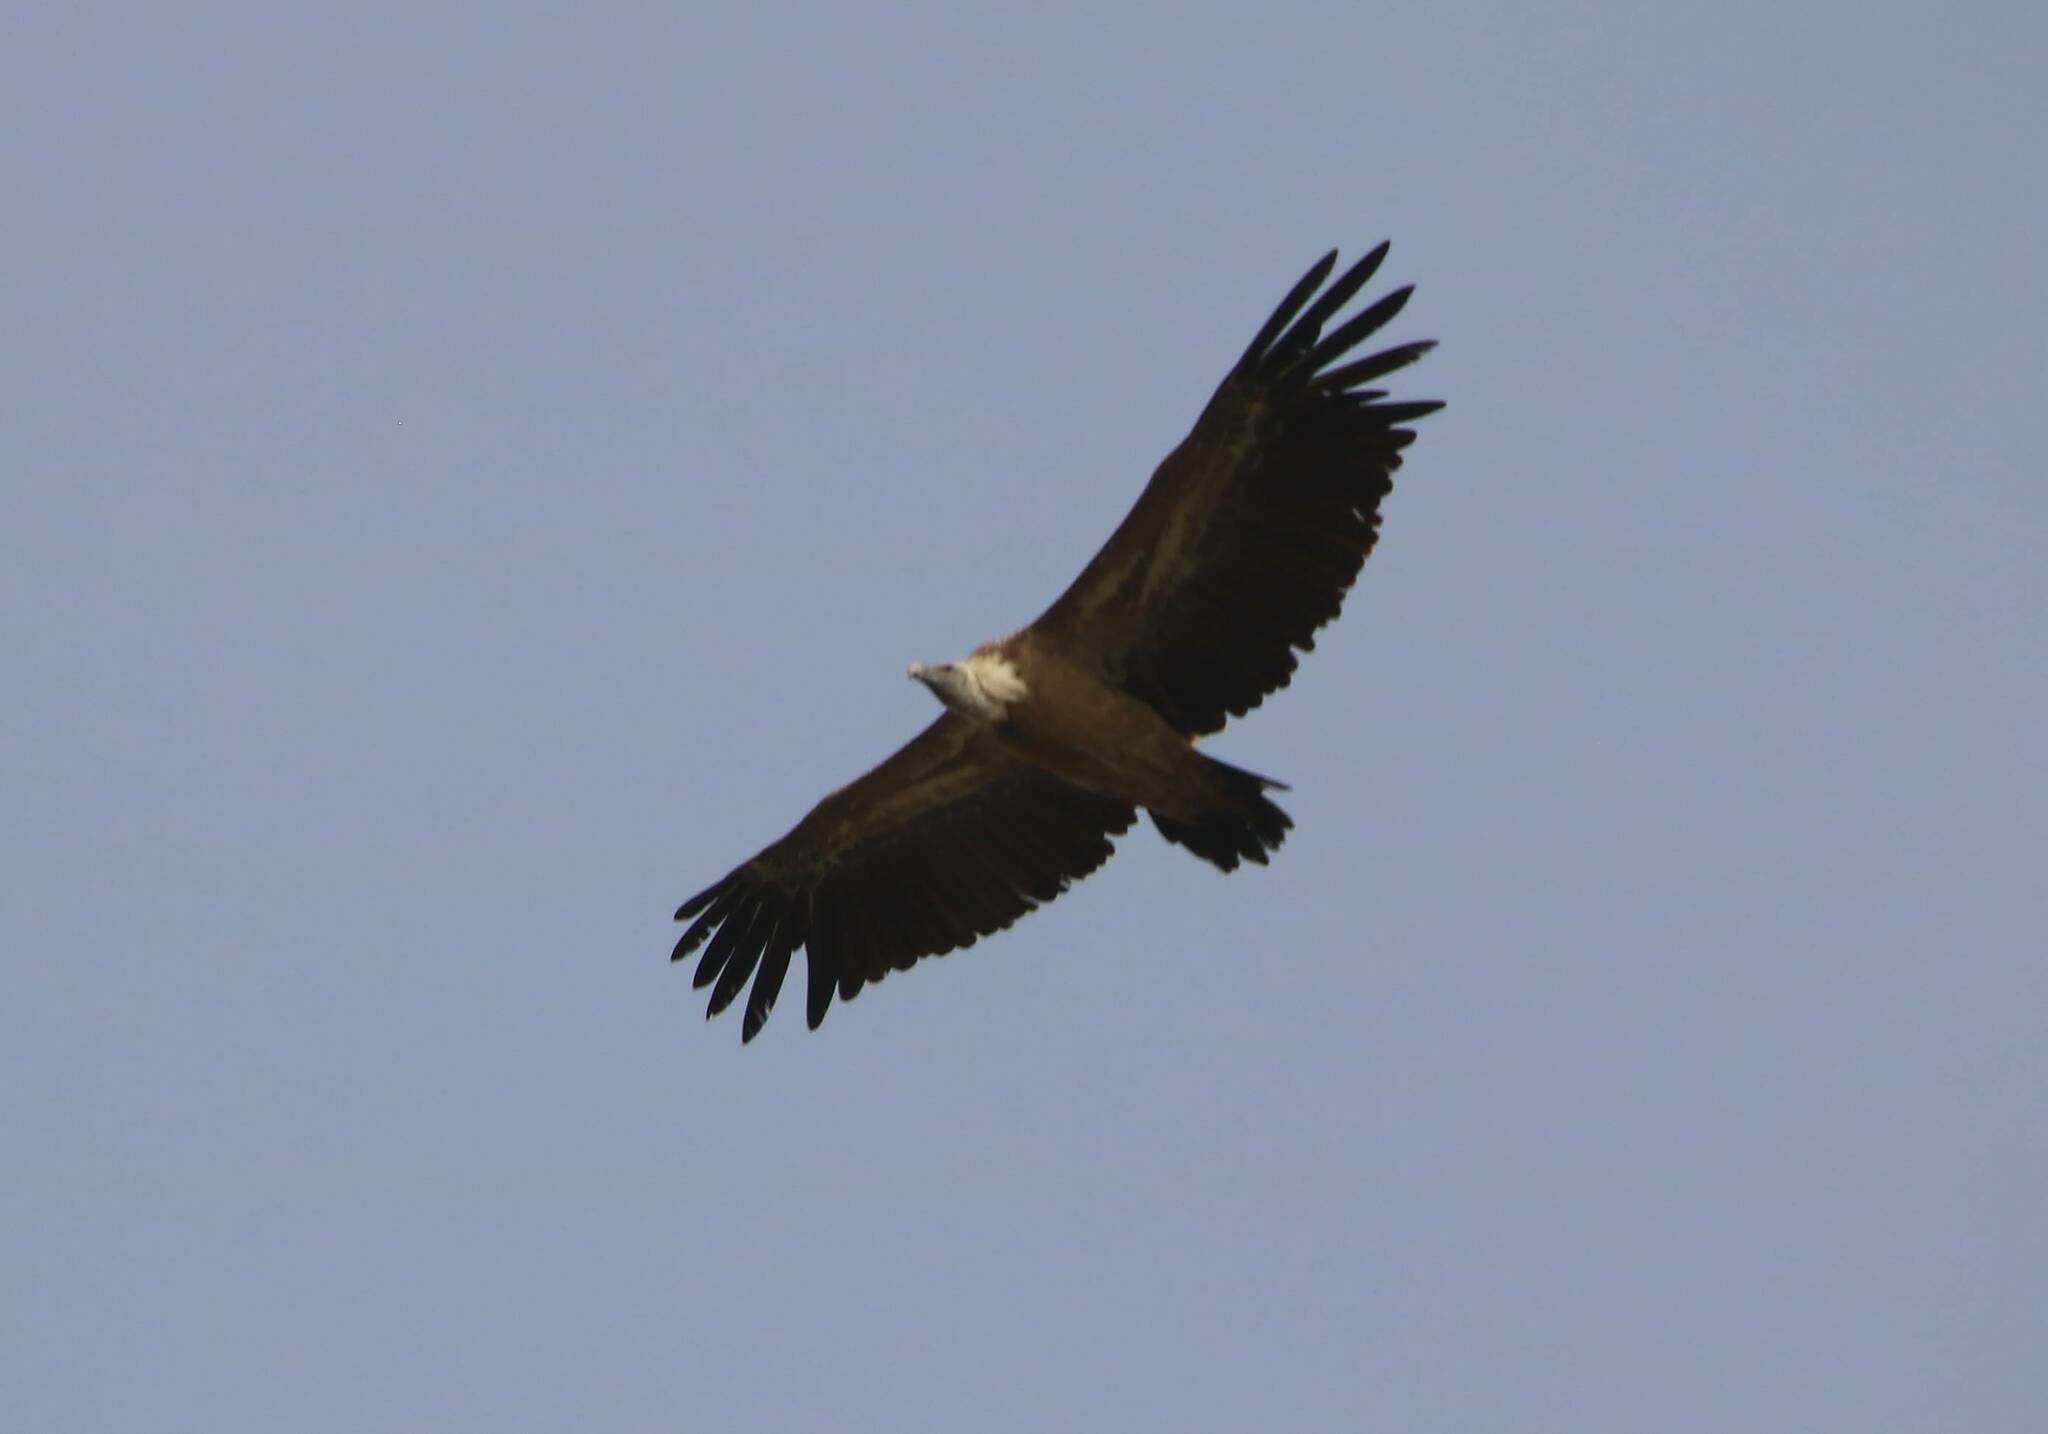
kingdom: Animalia
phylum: Chordata
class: Aves
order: Accipitriformes
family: Accipitridae
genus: Gyps
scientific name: Gyps fulvus
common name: Griffon vulture
